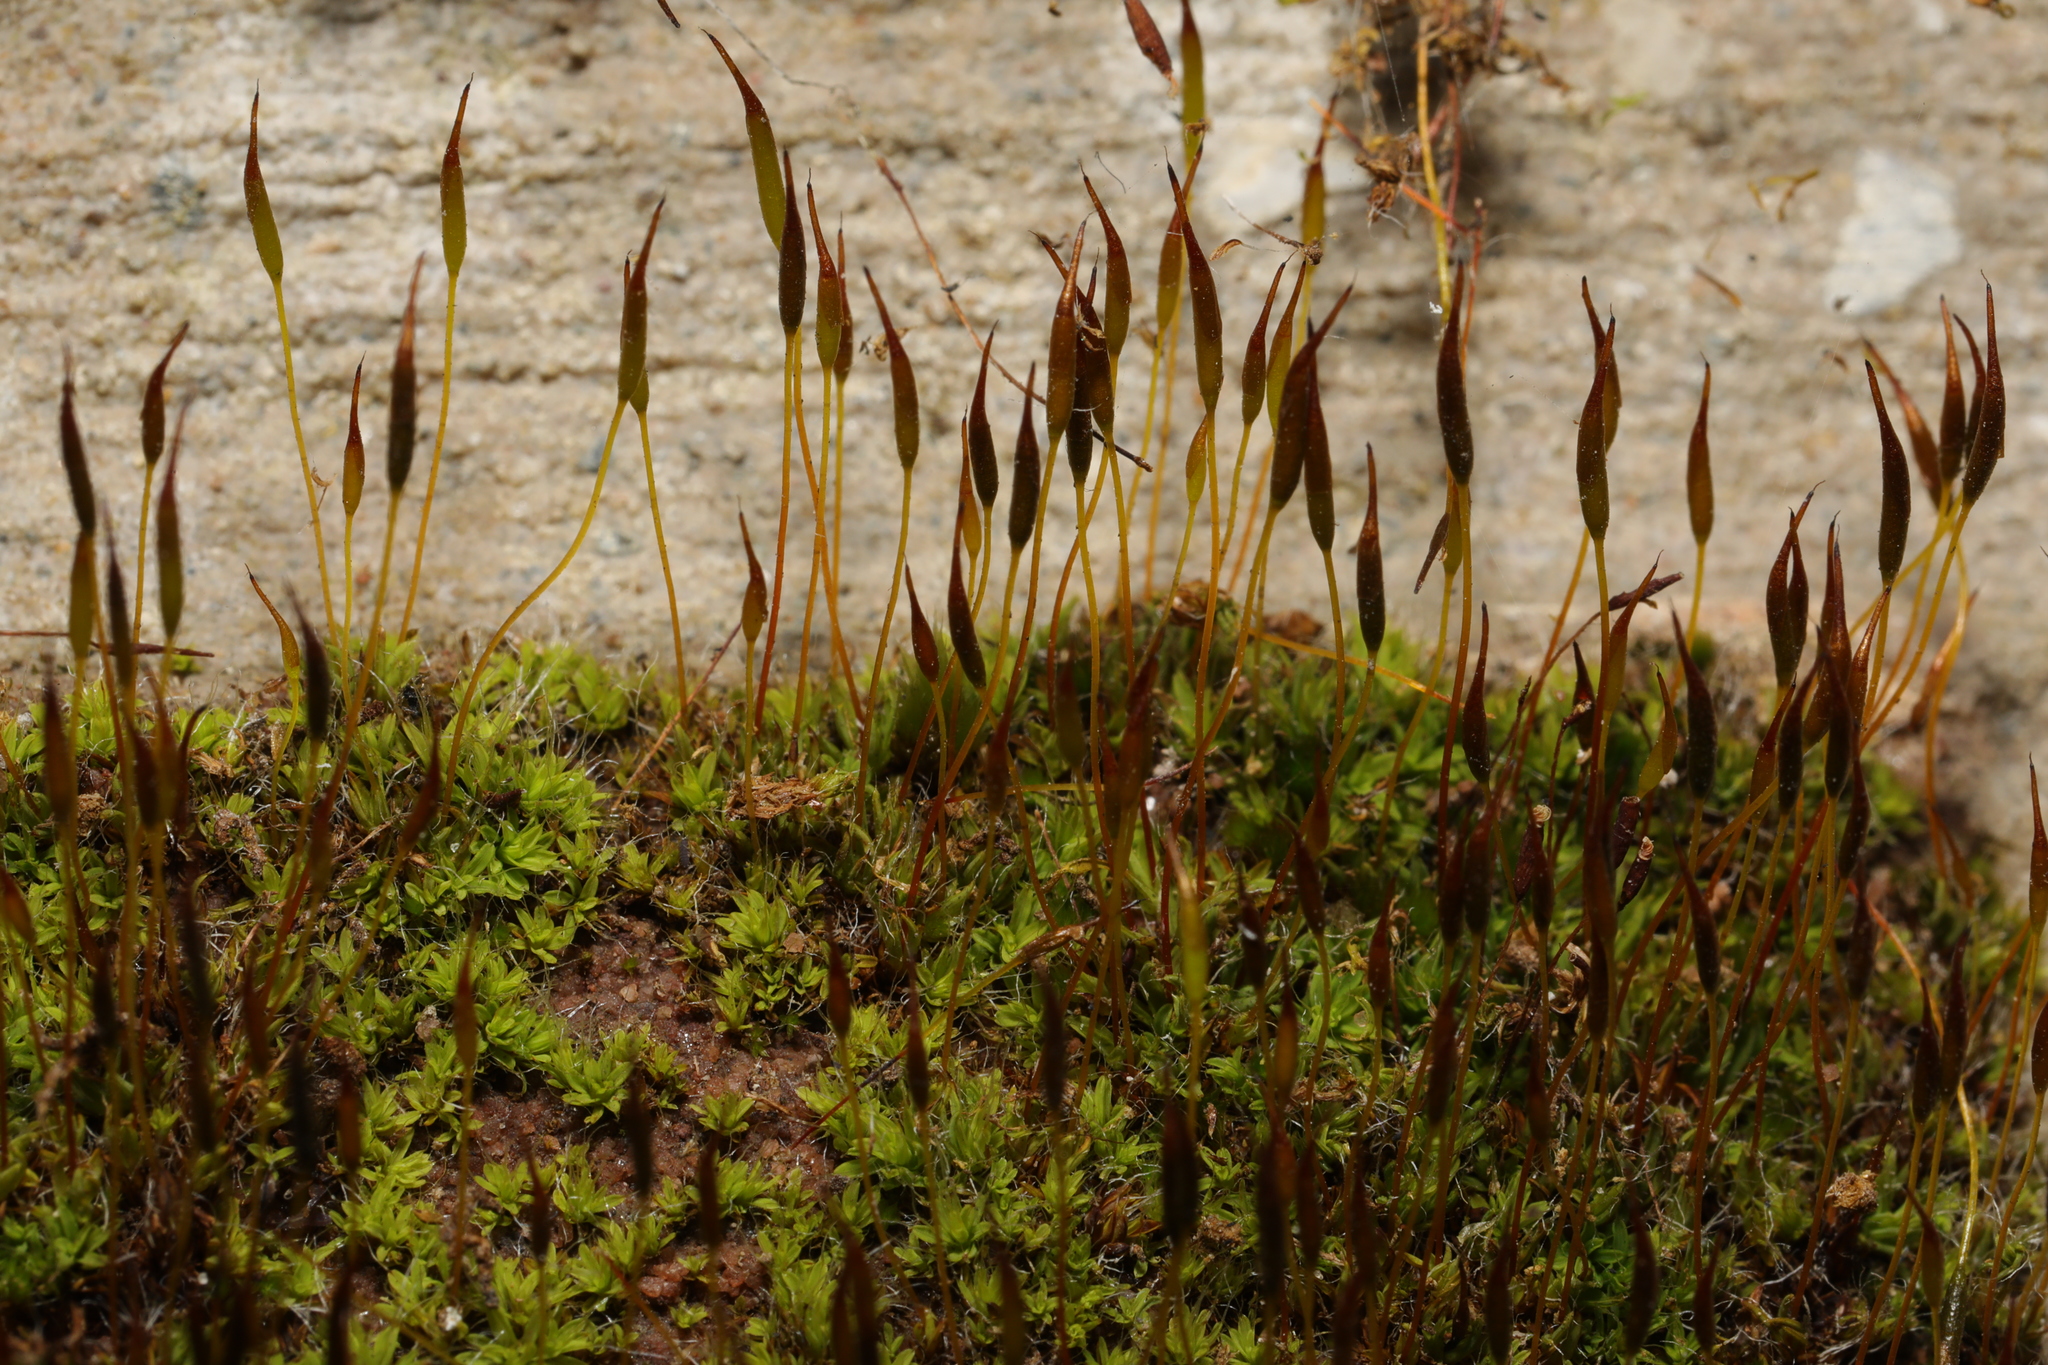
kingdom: Plantae
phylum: Bryophyta
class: Bryopsida
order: Pottiales
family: Pottiaceae
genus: Tortula
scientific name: Tortula muralis
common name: Wall screw-moss
